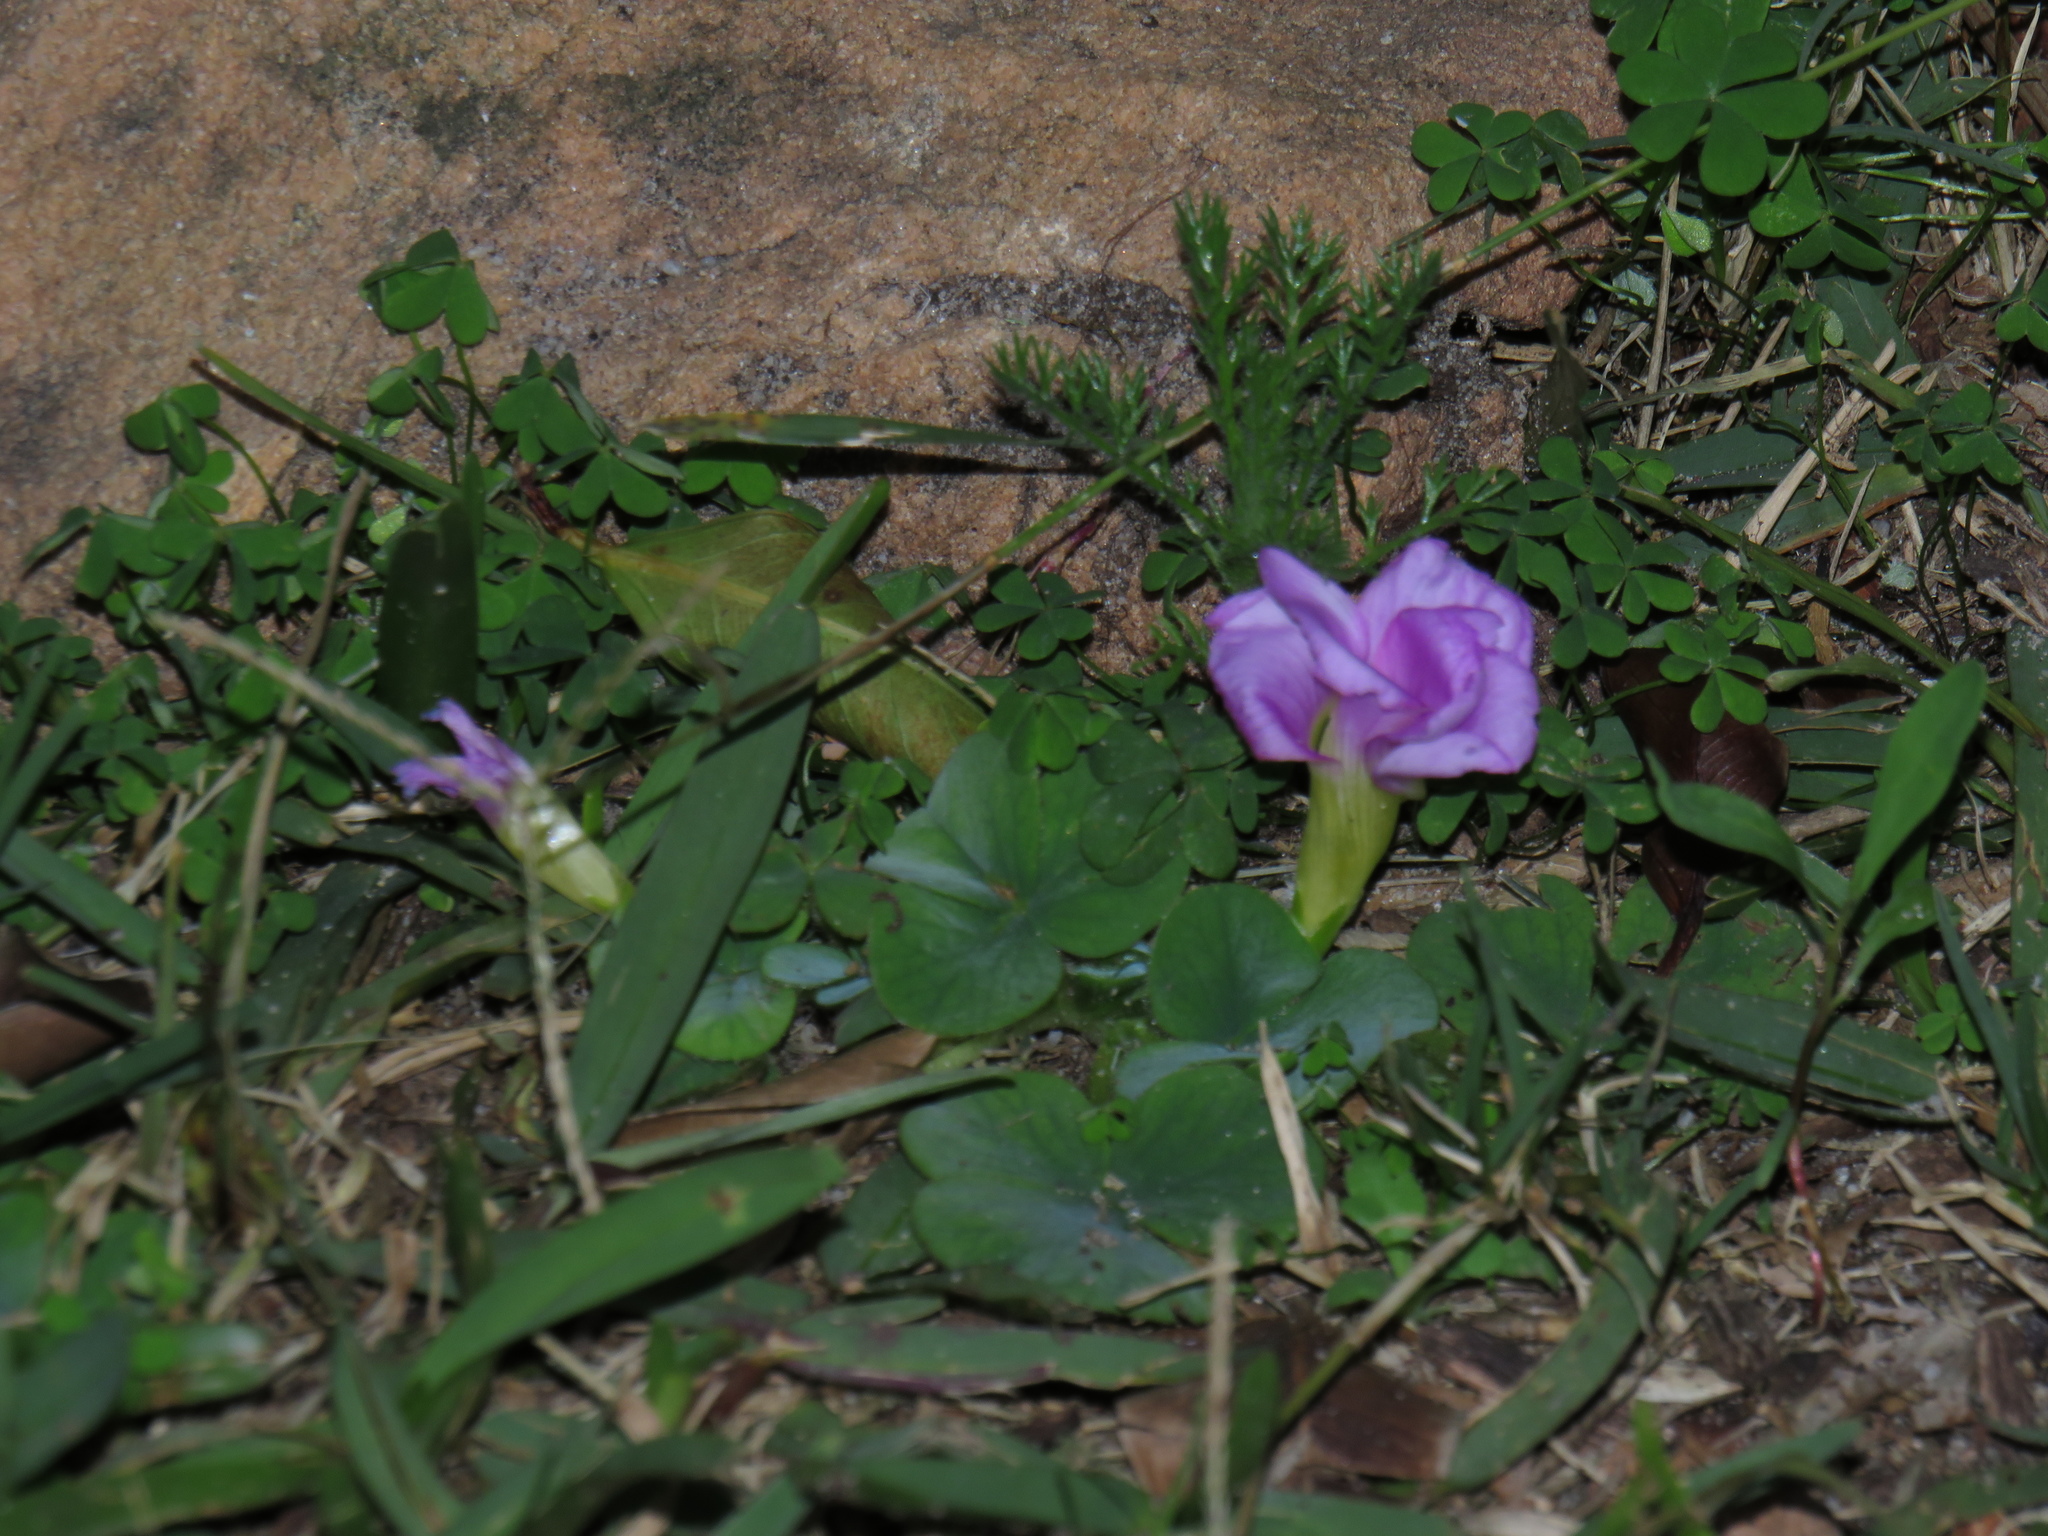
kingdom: Plantae
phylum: Tracheophyta
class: Magnoliopsida
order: Oxalidales
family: Oxalidaceae
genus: Oxalis
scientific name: Oxalis purpurea
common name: Purple woodsorrel
